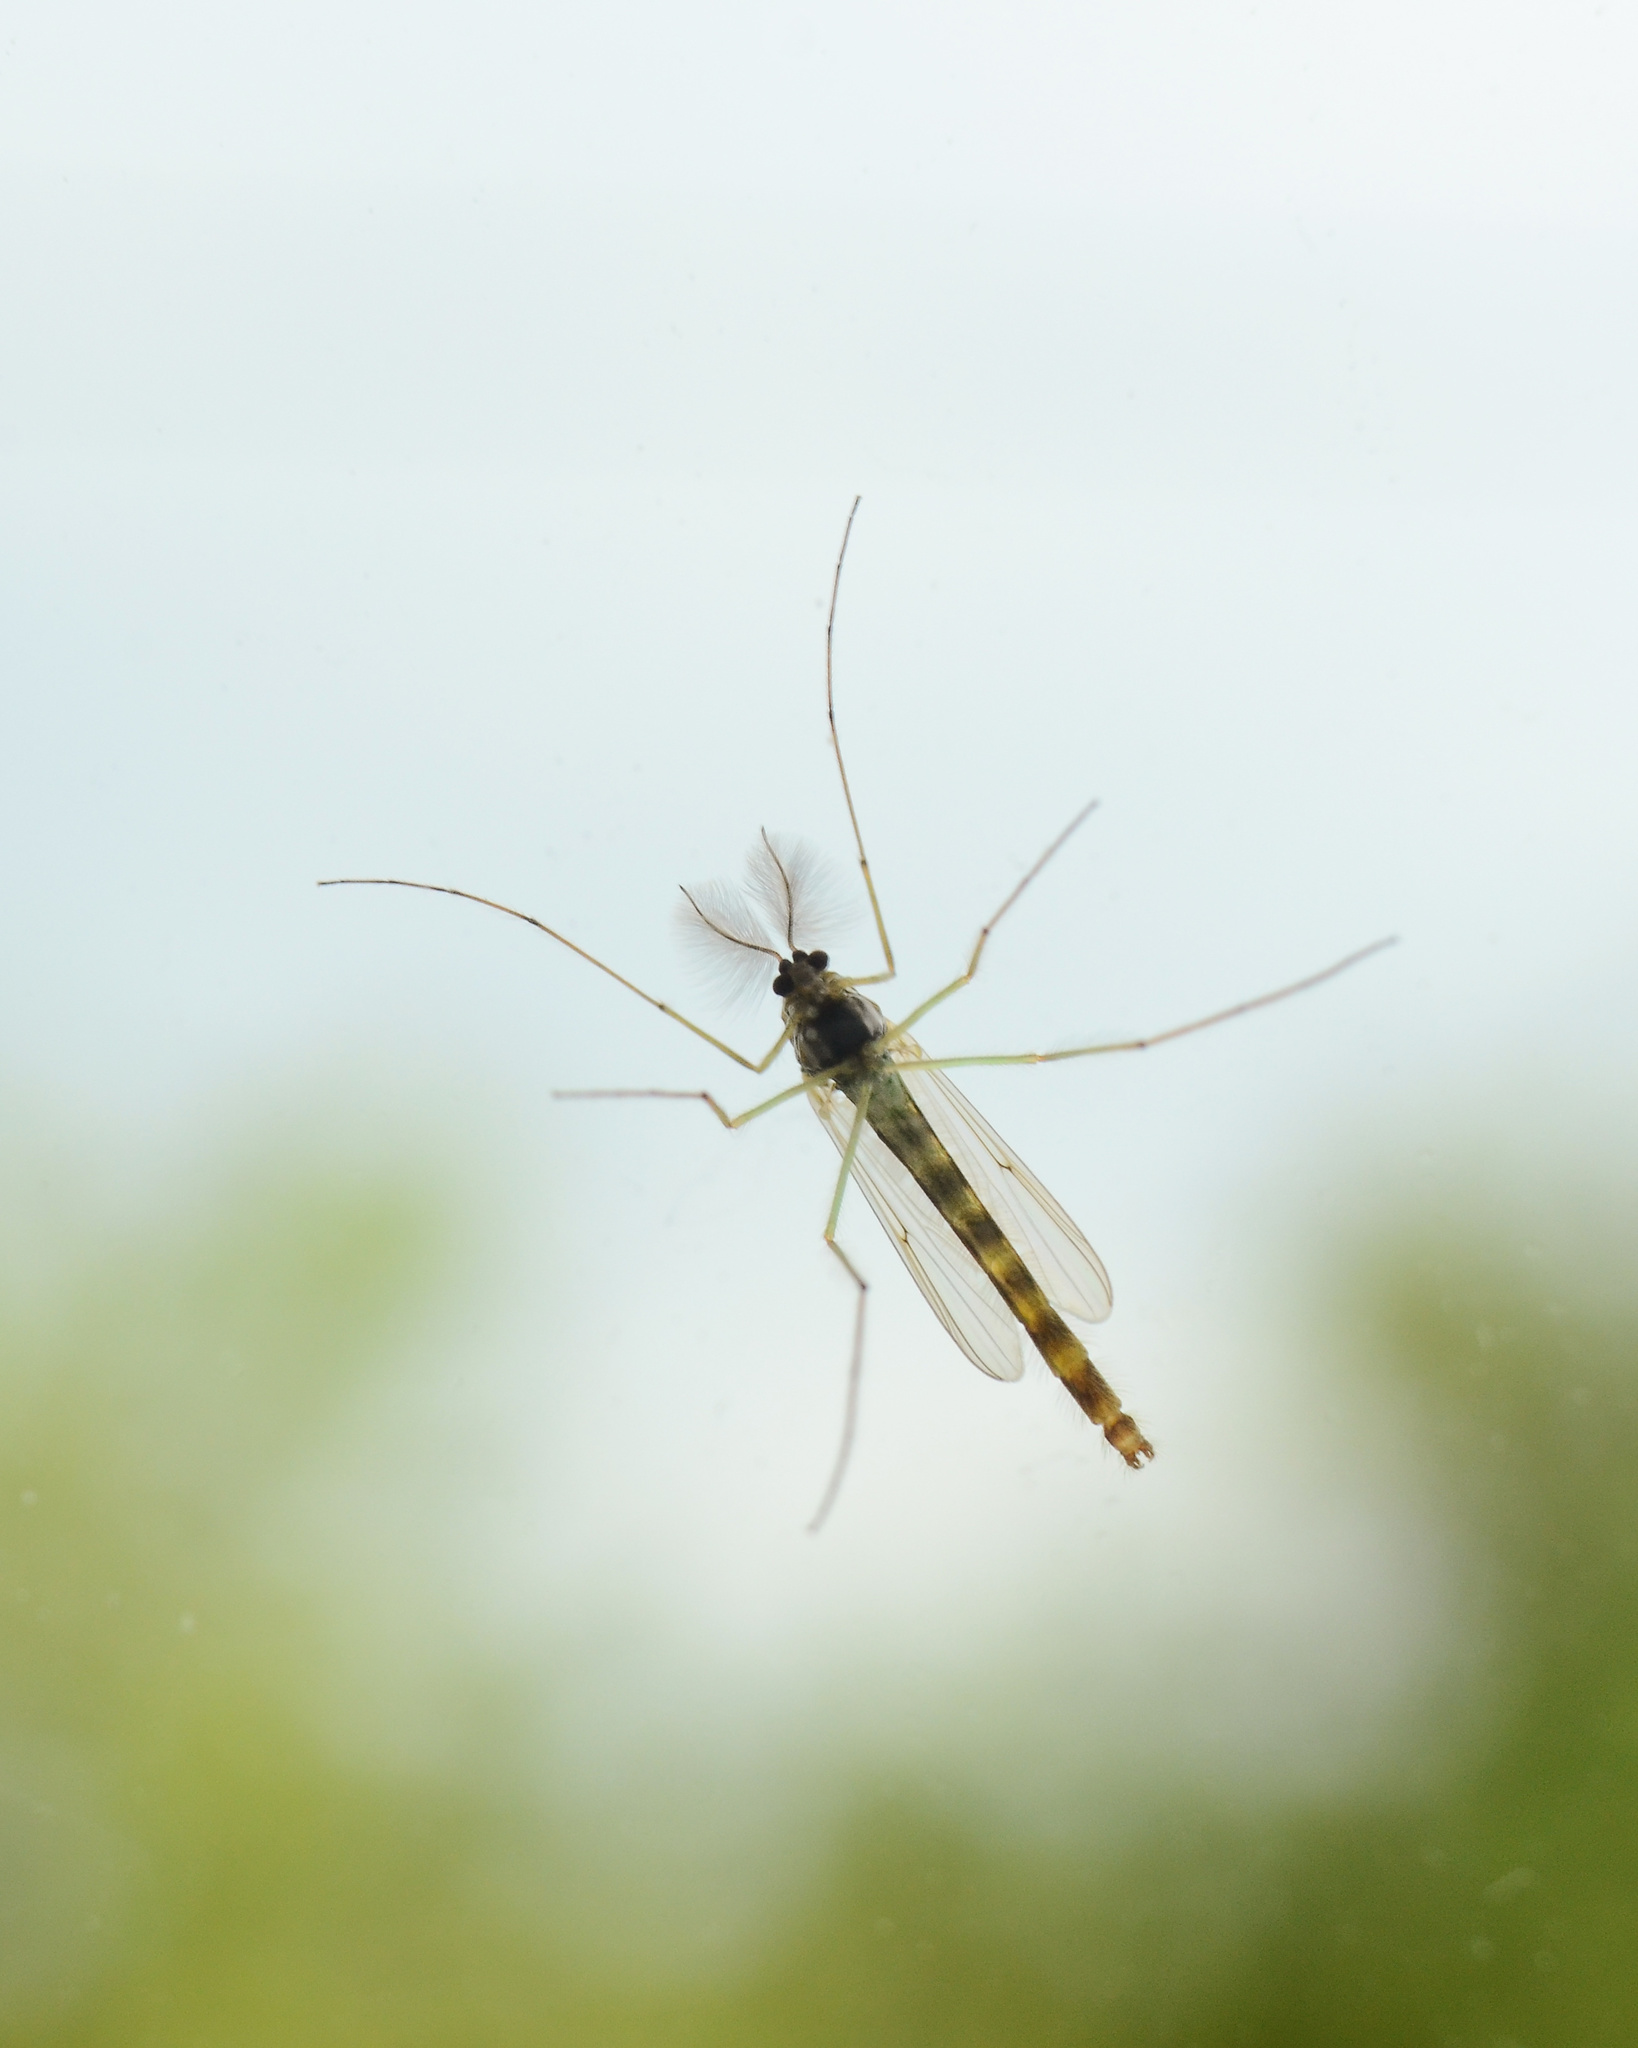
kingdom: Animalia
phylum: Arthropoda
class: Insecta
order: Diptera
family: Chironomidae
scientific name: Chironomidae
